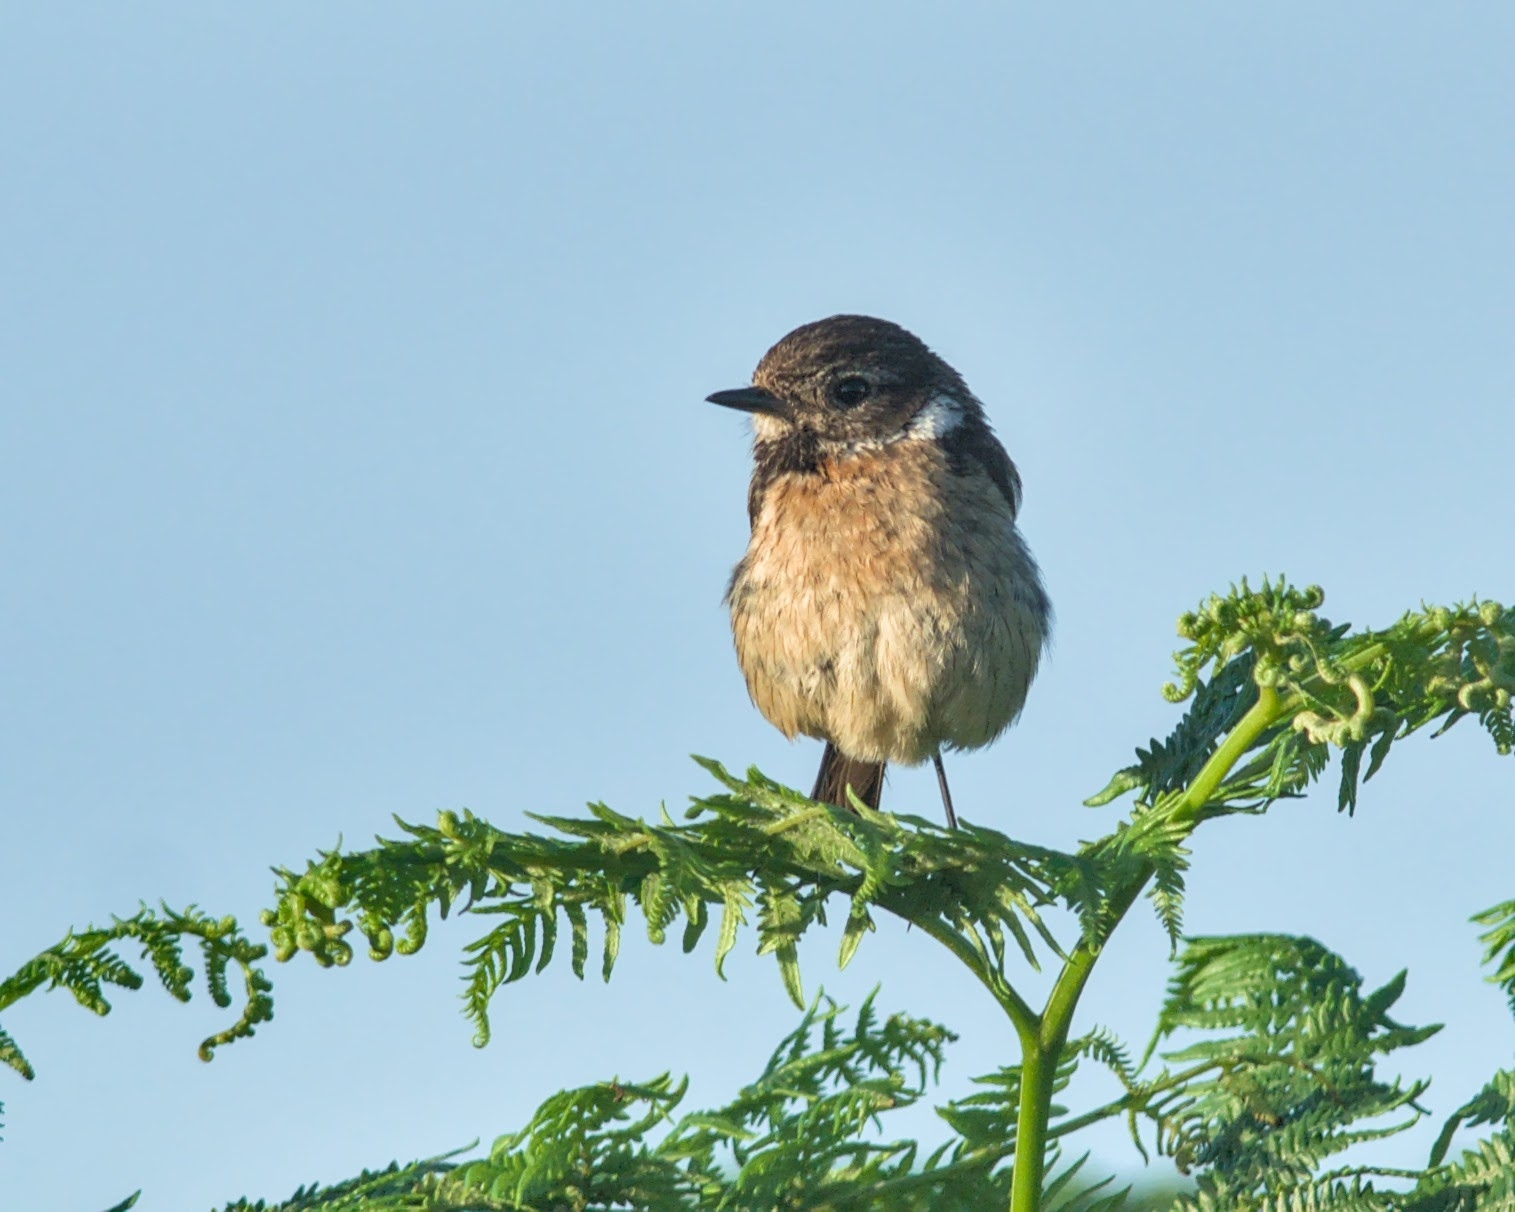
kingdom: Animalia
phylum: Chordata
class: Aves
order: Passeriformes
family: Muscicapidae
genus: Saxicola
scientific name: Saxicola rubicola
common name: European stonechat
